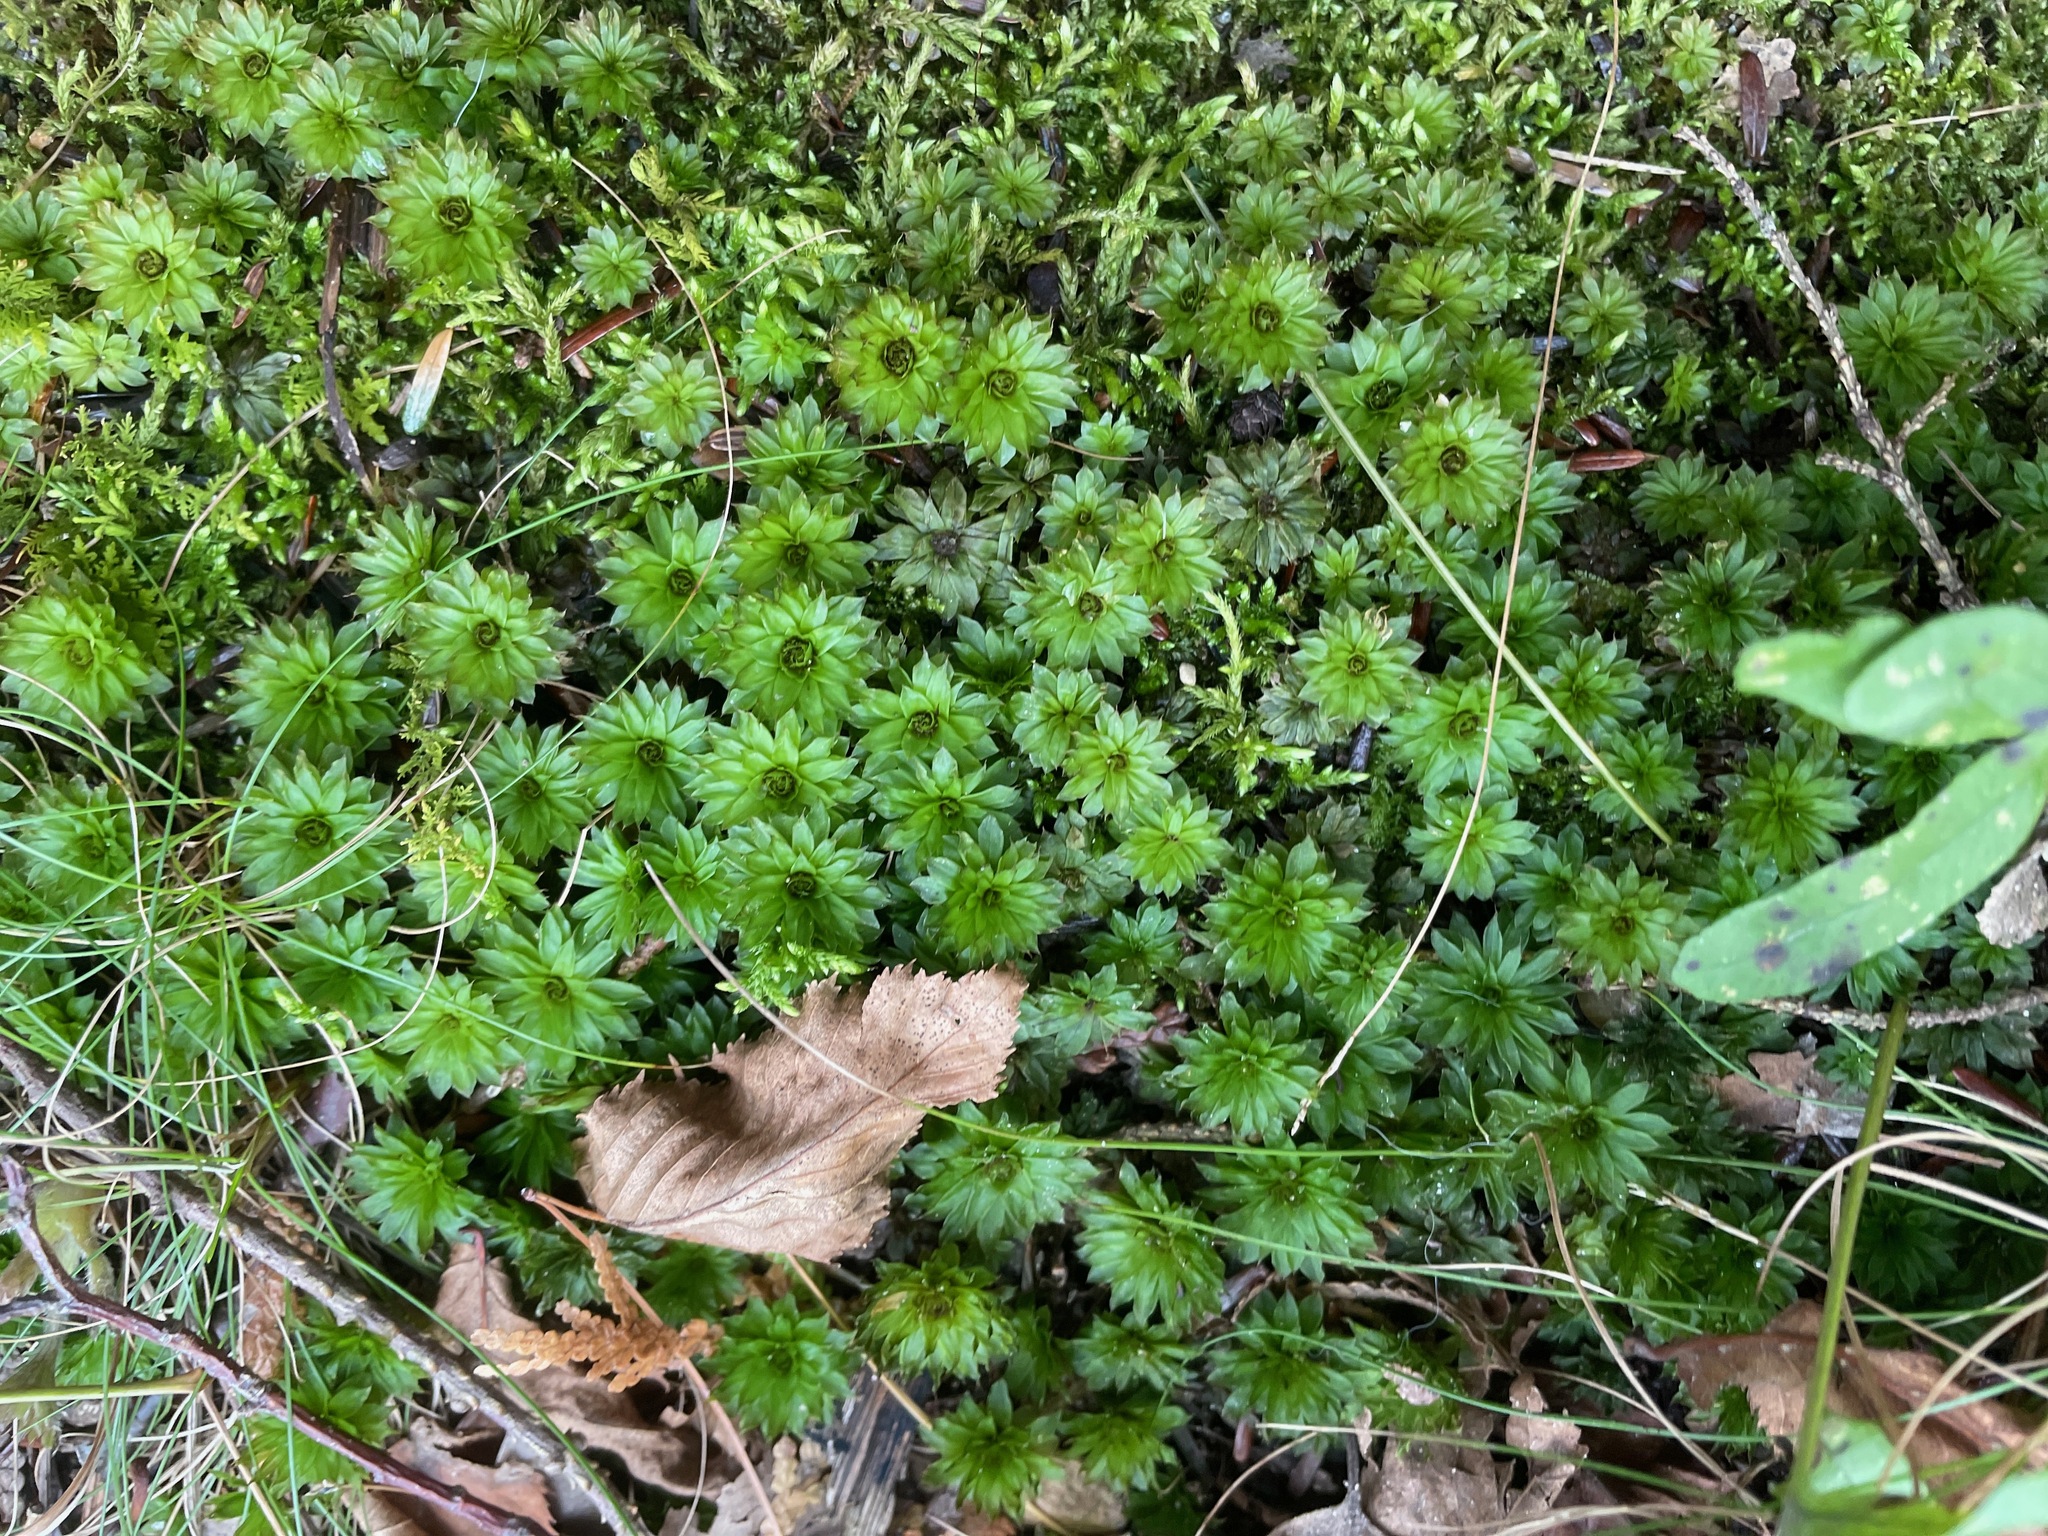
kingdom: Plantae
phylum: Bryophyta
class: Bryopsida
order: Bryales
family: Bryaceae
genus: Rhodobryum
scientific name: Rhodobryum ontariense
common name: Ontario rhodobryum moss
